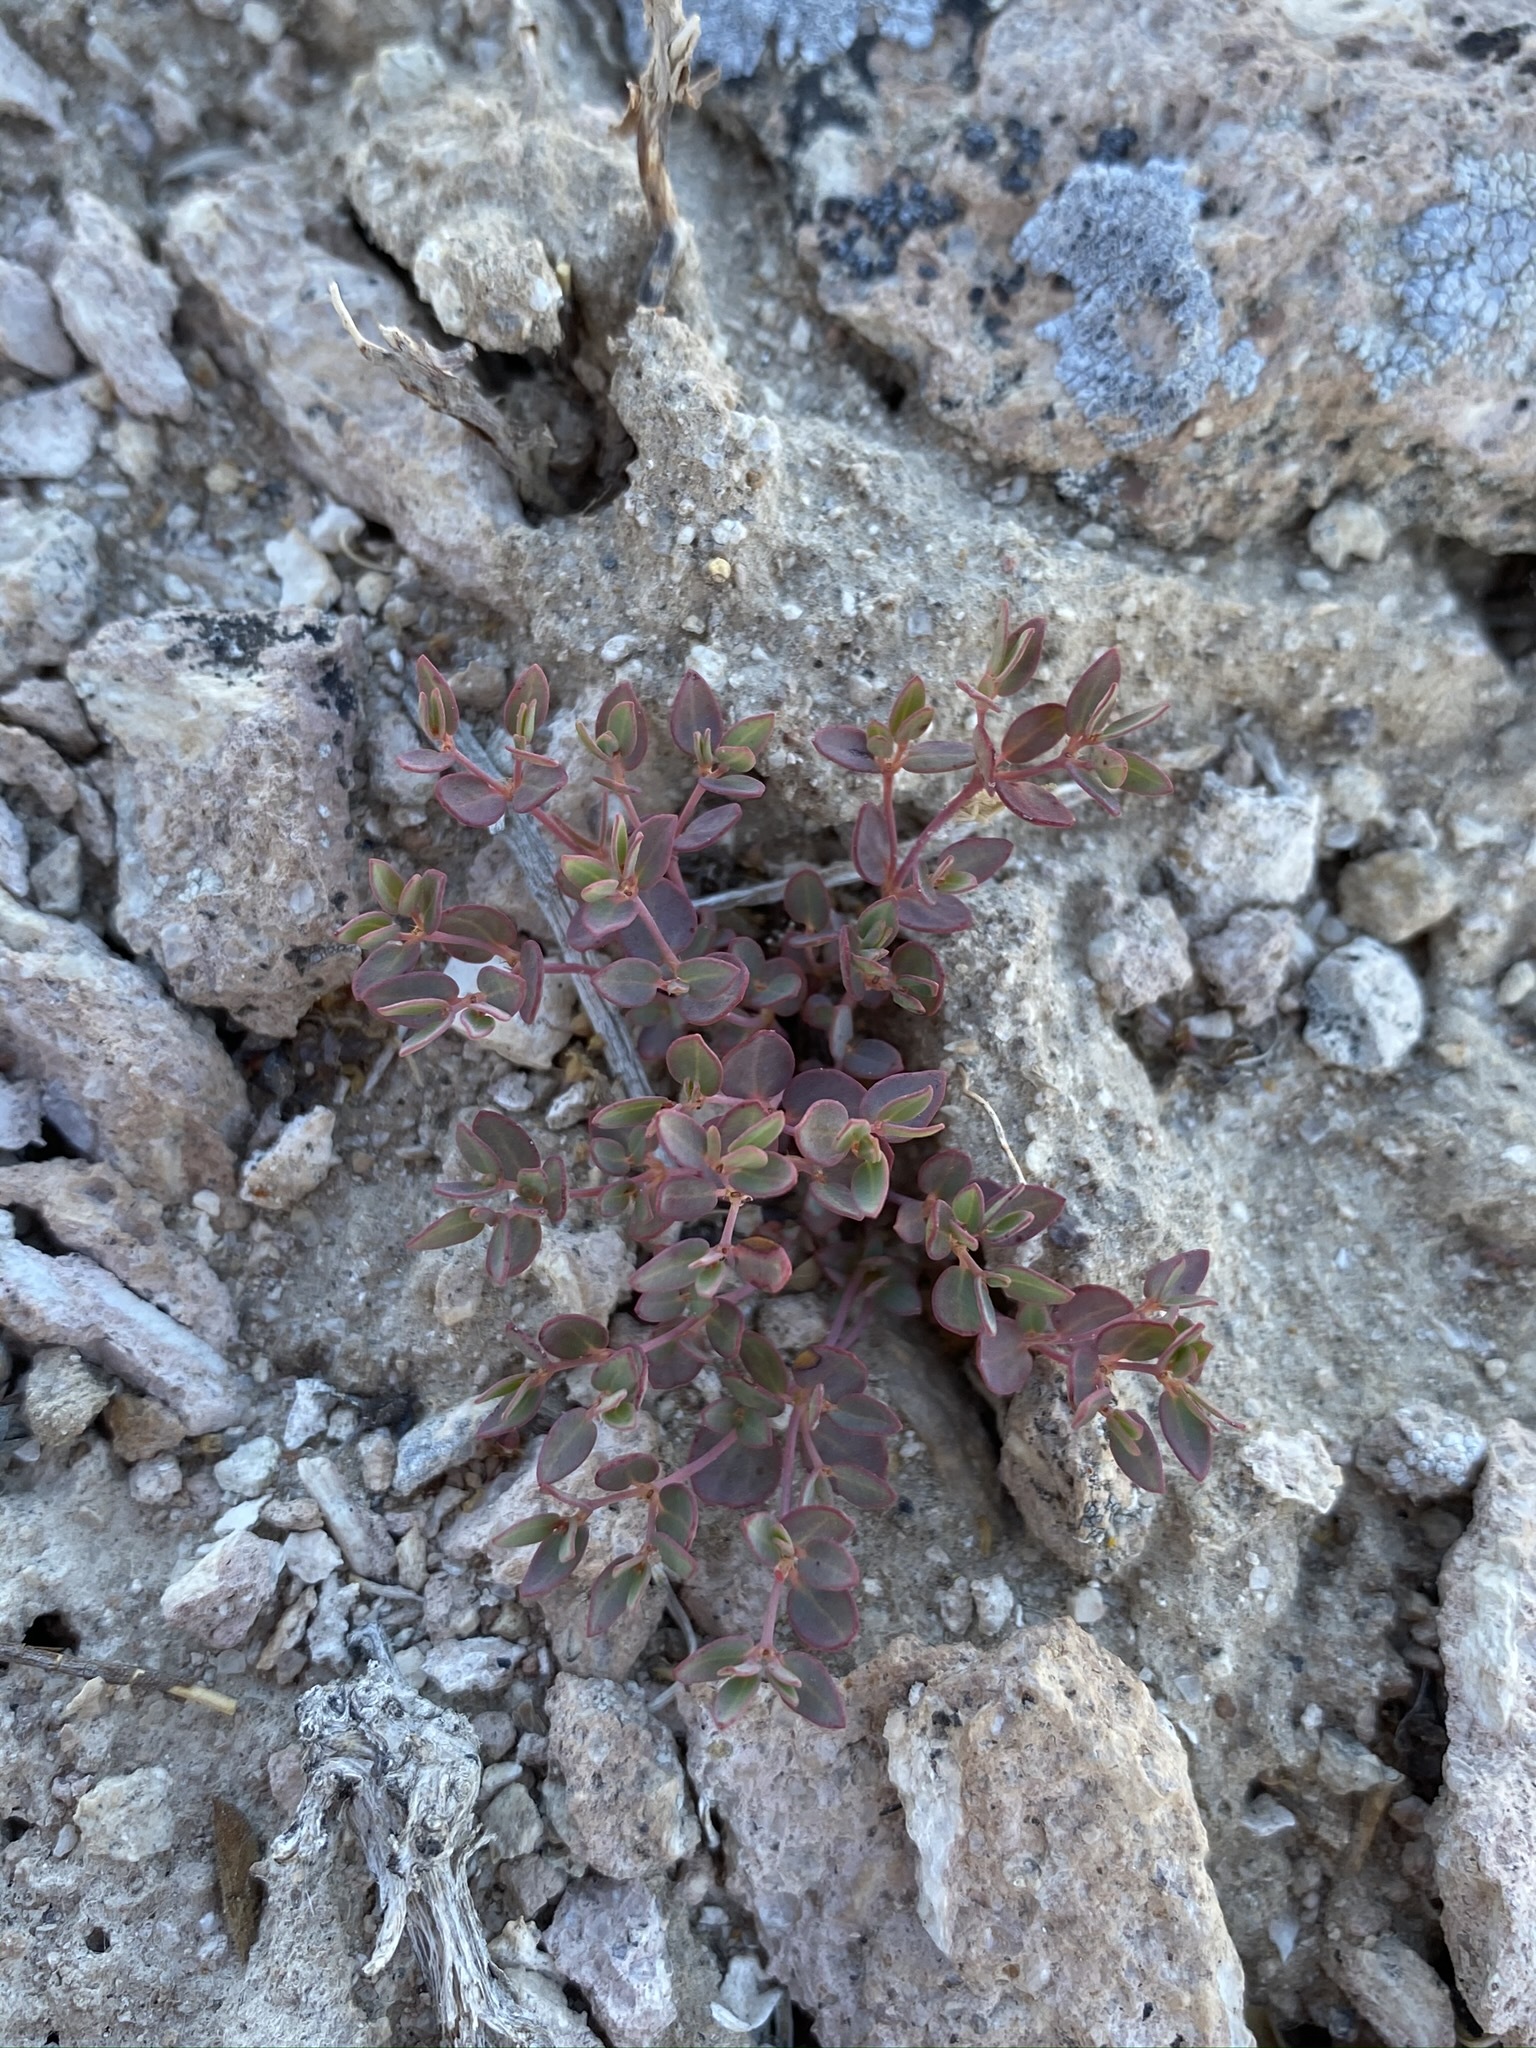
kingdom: Plantae
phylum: Tracheophyta
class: Magnoliopsida
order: Malpighiales
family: Euphorbiaceae
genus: Euphorbia
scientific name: Euphorbia fendleri
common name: Fendler's euphorbia
